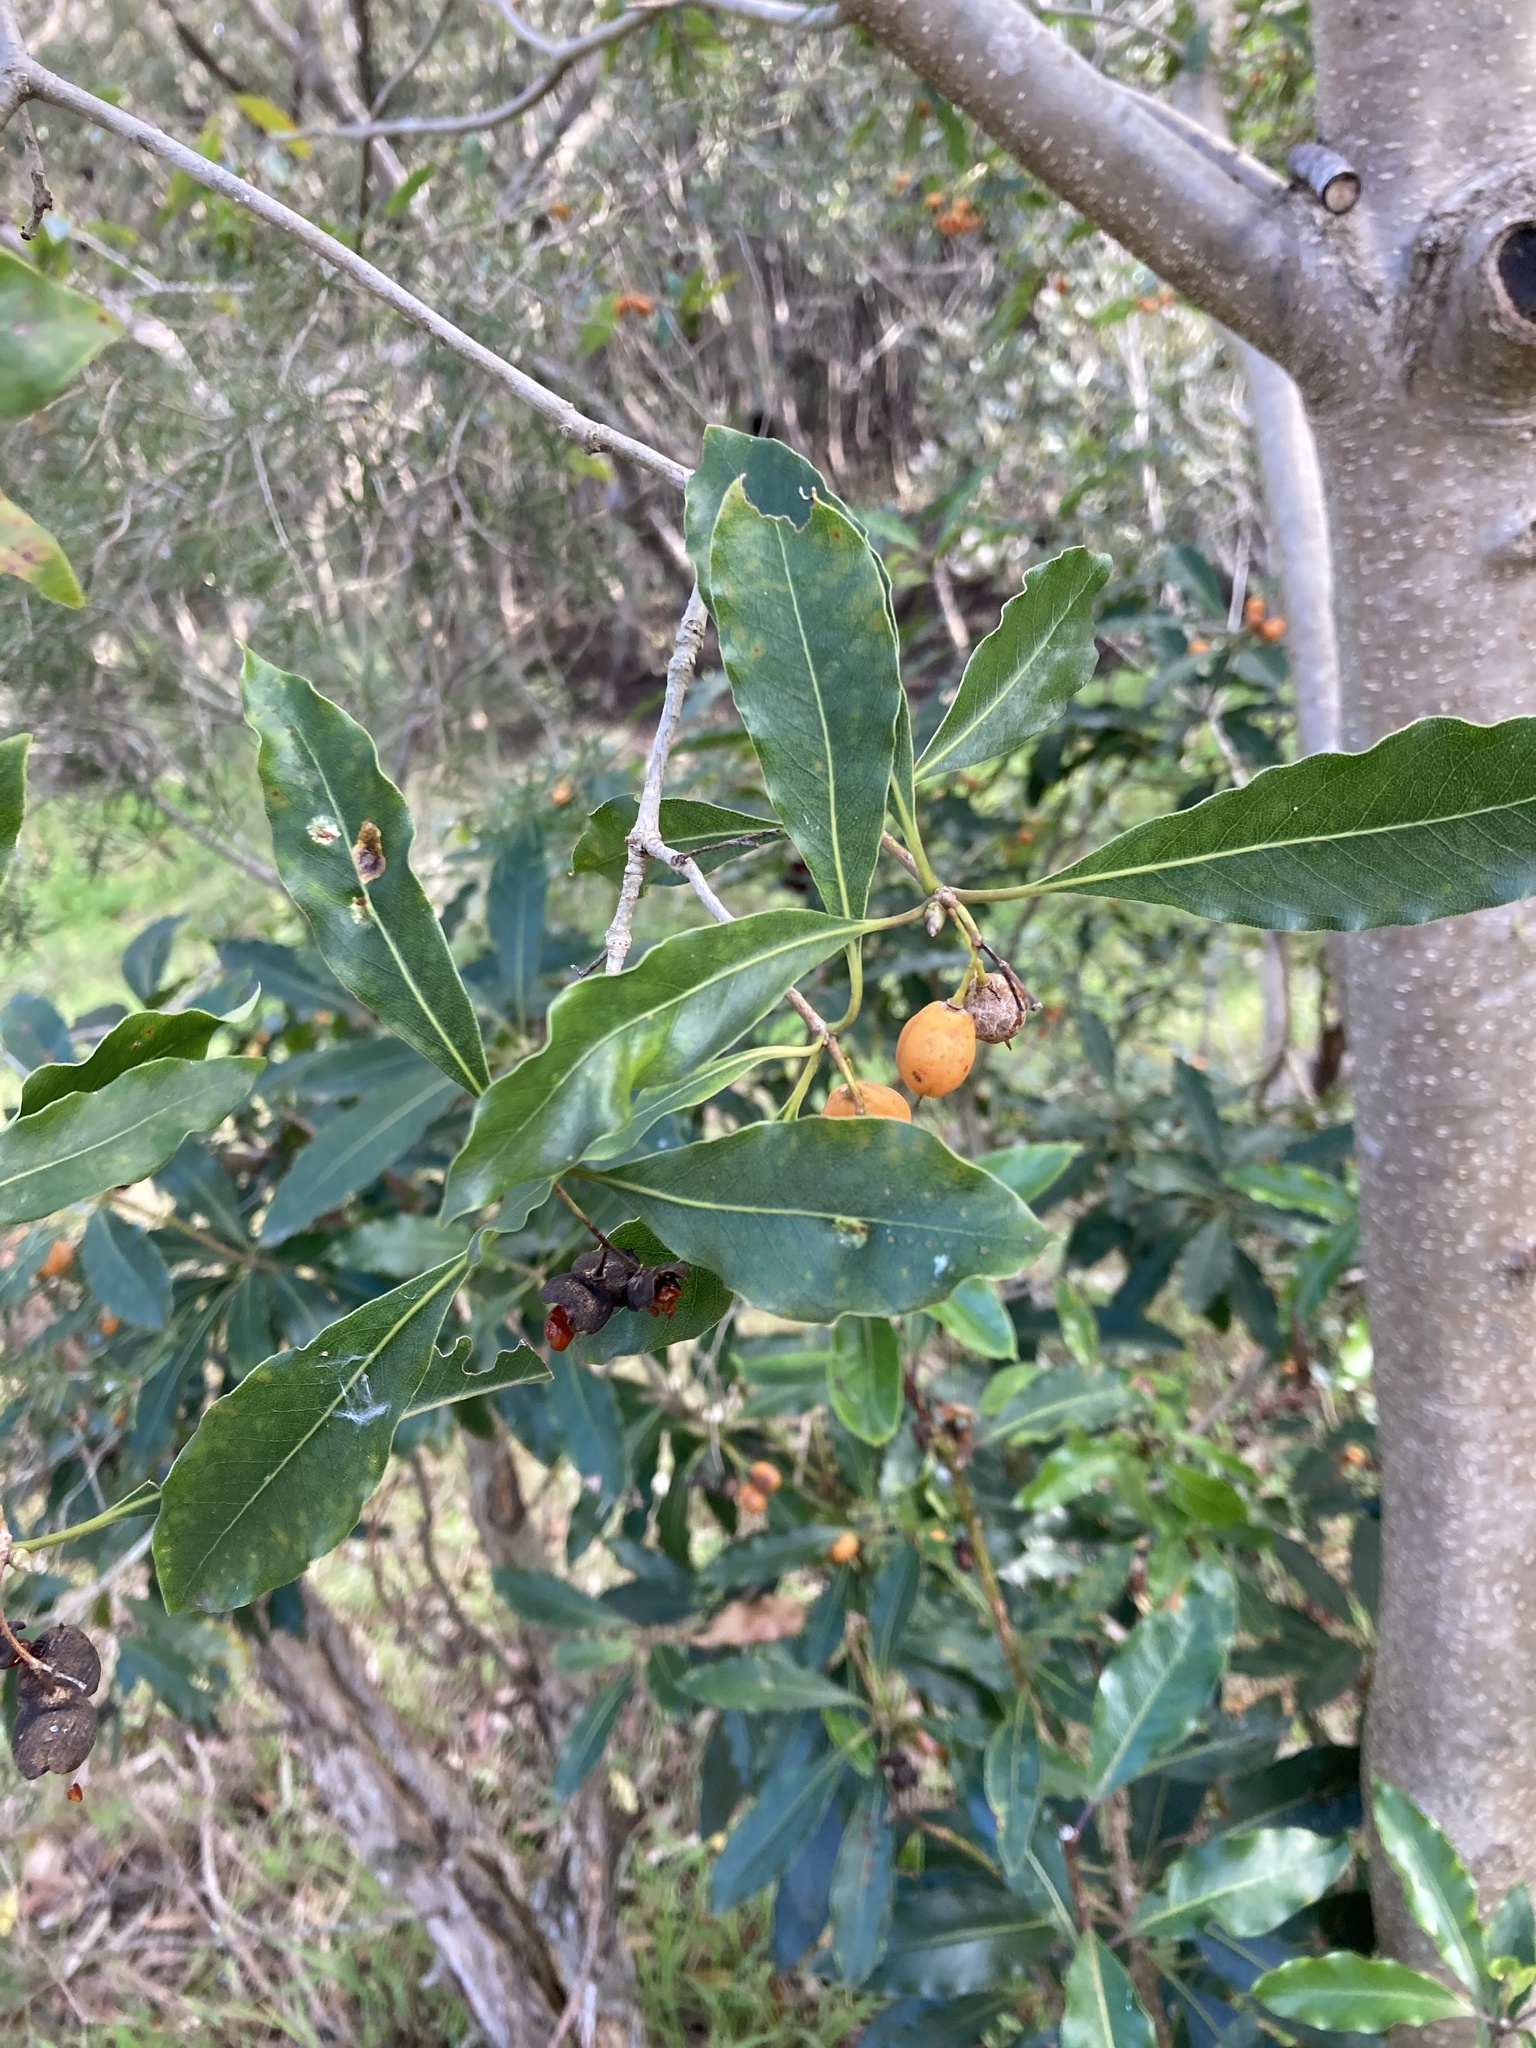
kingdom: Plantae
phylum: Tracheophyta
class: Magnoliopsida
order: Apiales
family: Pittosporaceae
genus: Pittosporum
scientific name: Pittosporum undulatum
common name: Australian cheesewood
